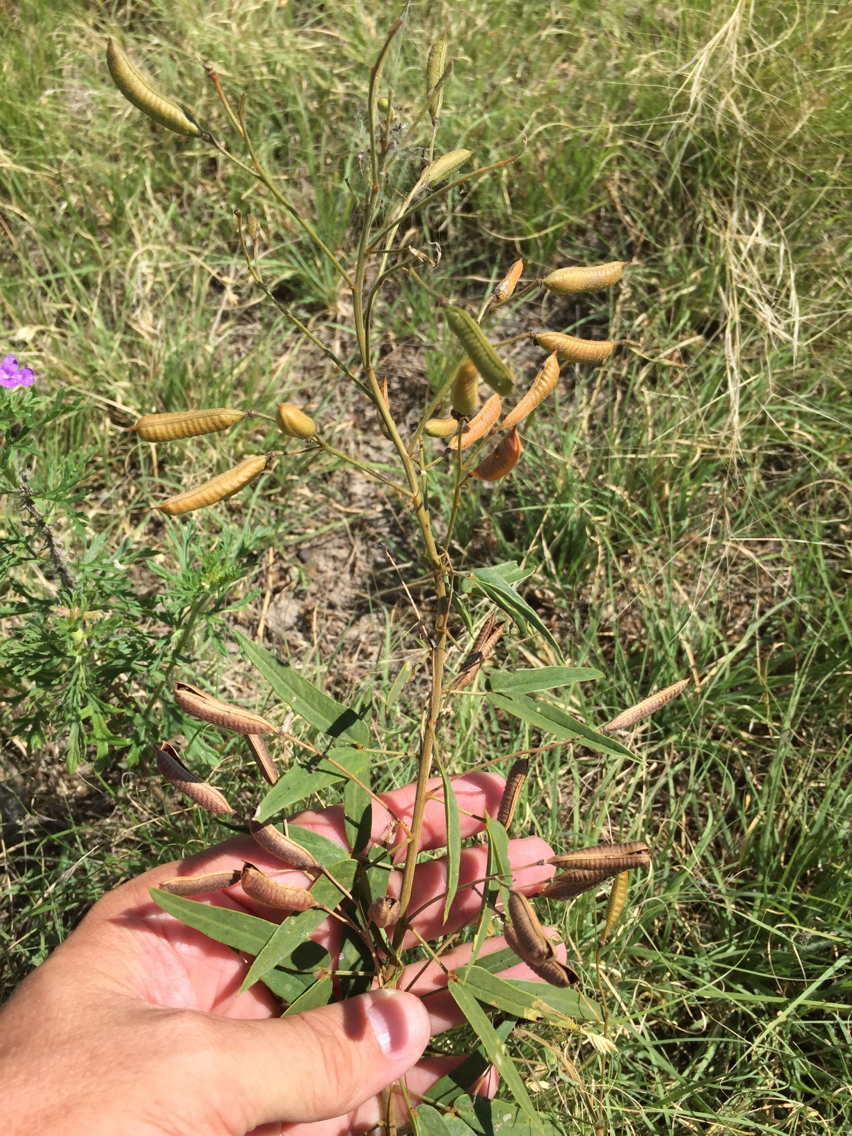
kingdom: Plantae
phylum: Tracheophyta
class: Magnoliopsida
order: Fabales
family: Fabaceae
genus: Senna
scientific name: Senna roemeriana
